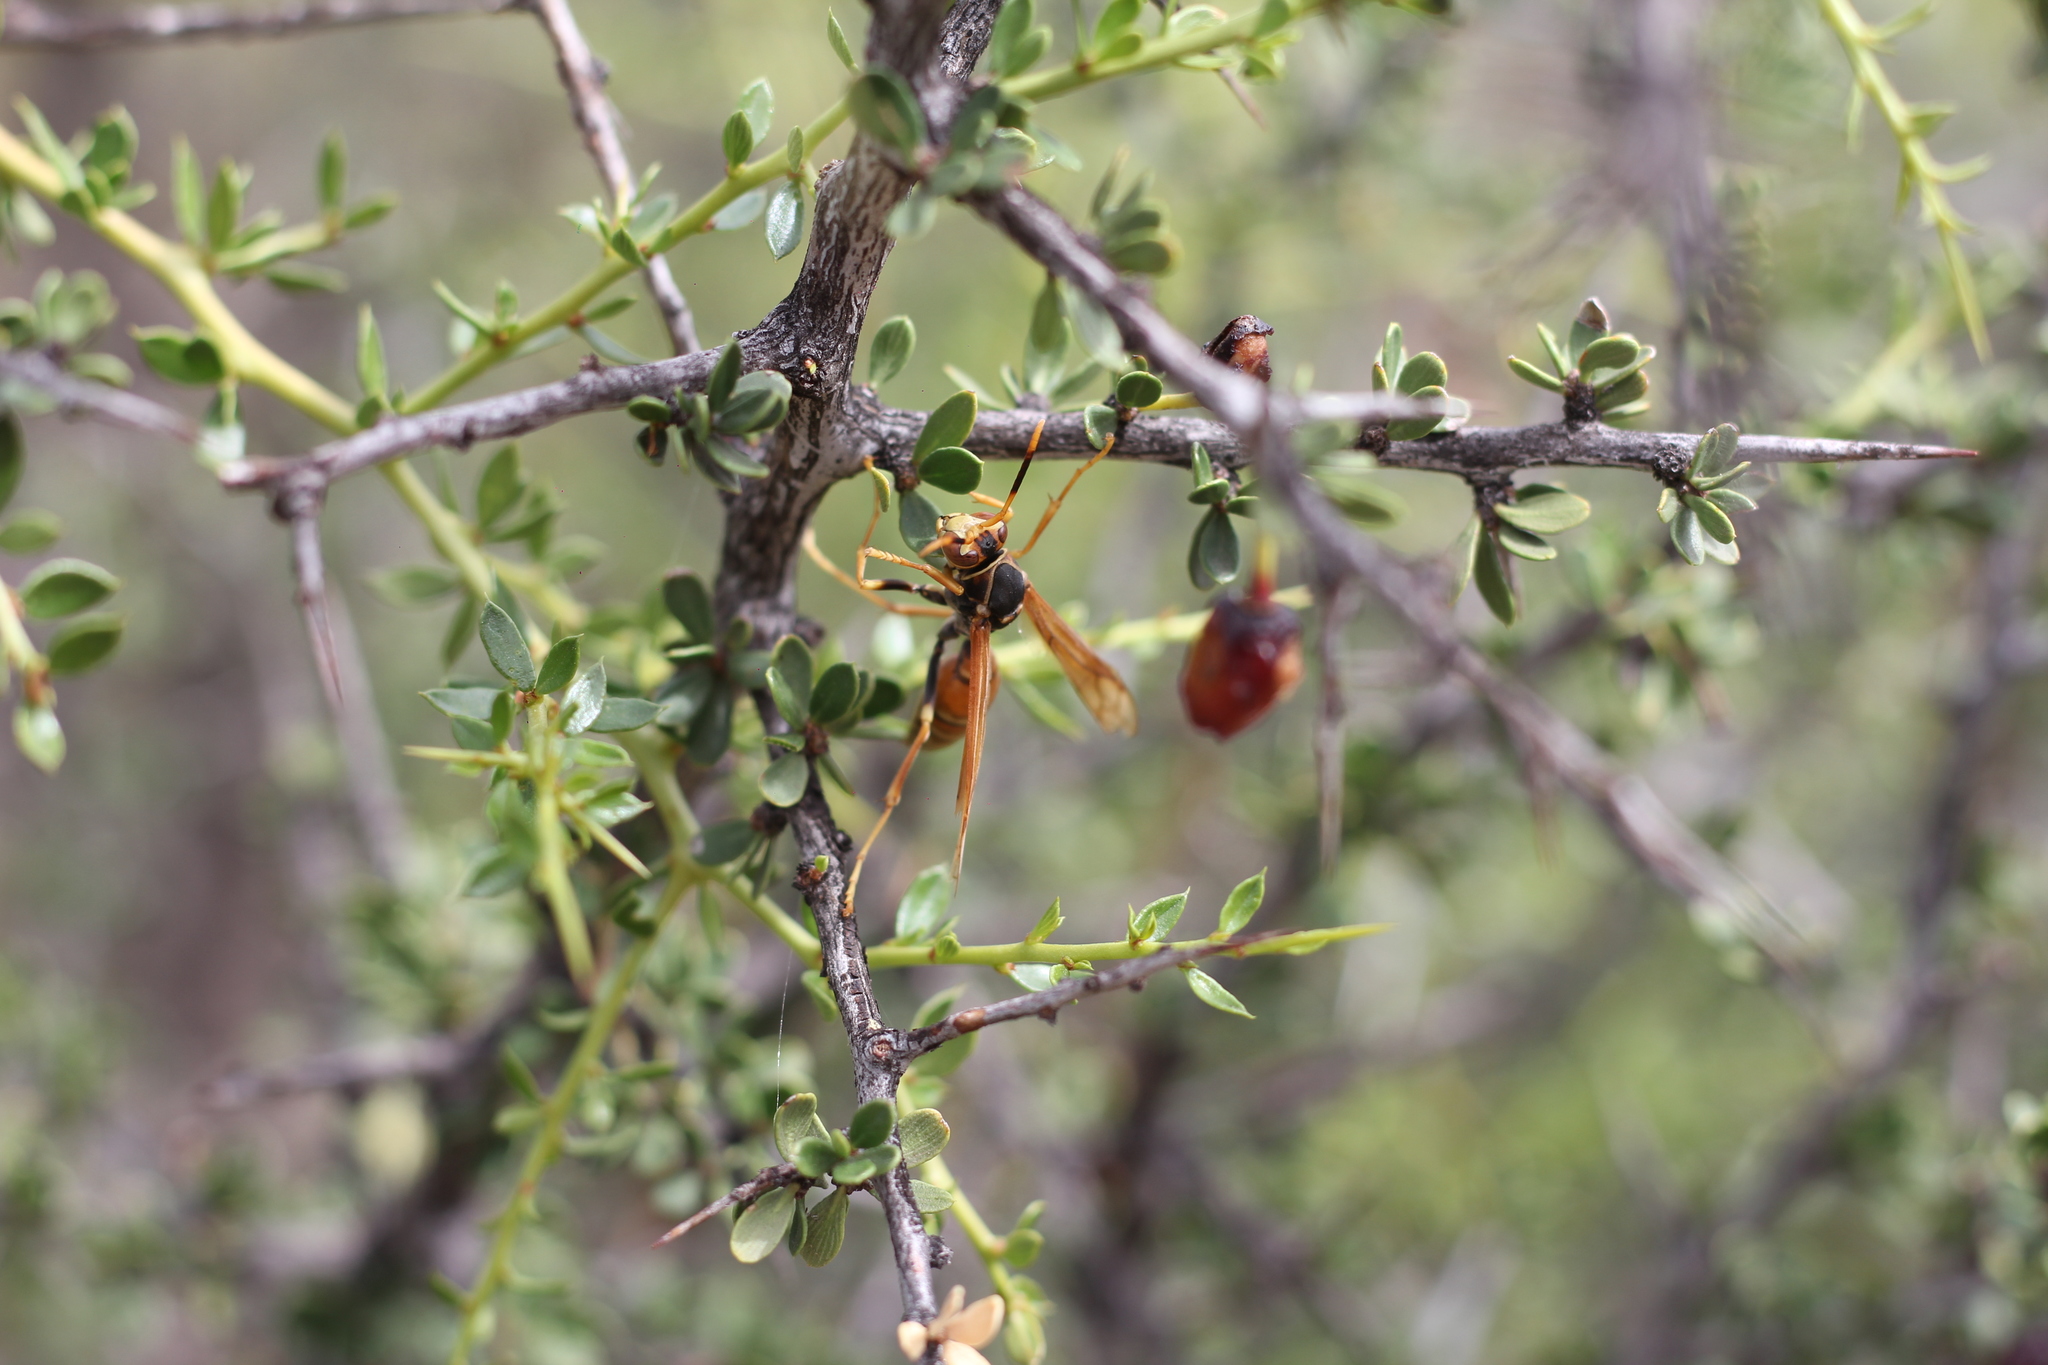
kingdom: Animalia
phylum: Arthropoda
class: Insecta
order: Hymenoptera
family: Eumenidae
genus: Polistes
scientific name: Polistes buyssoni
